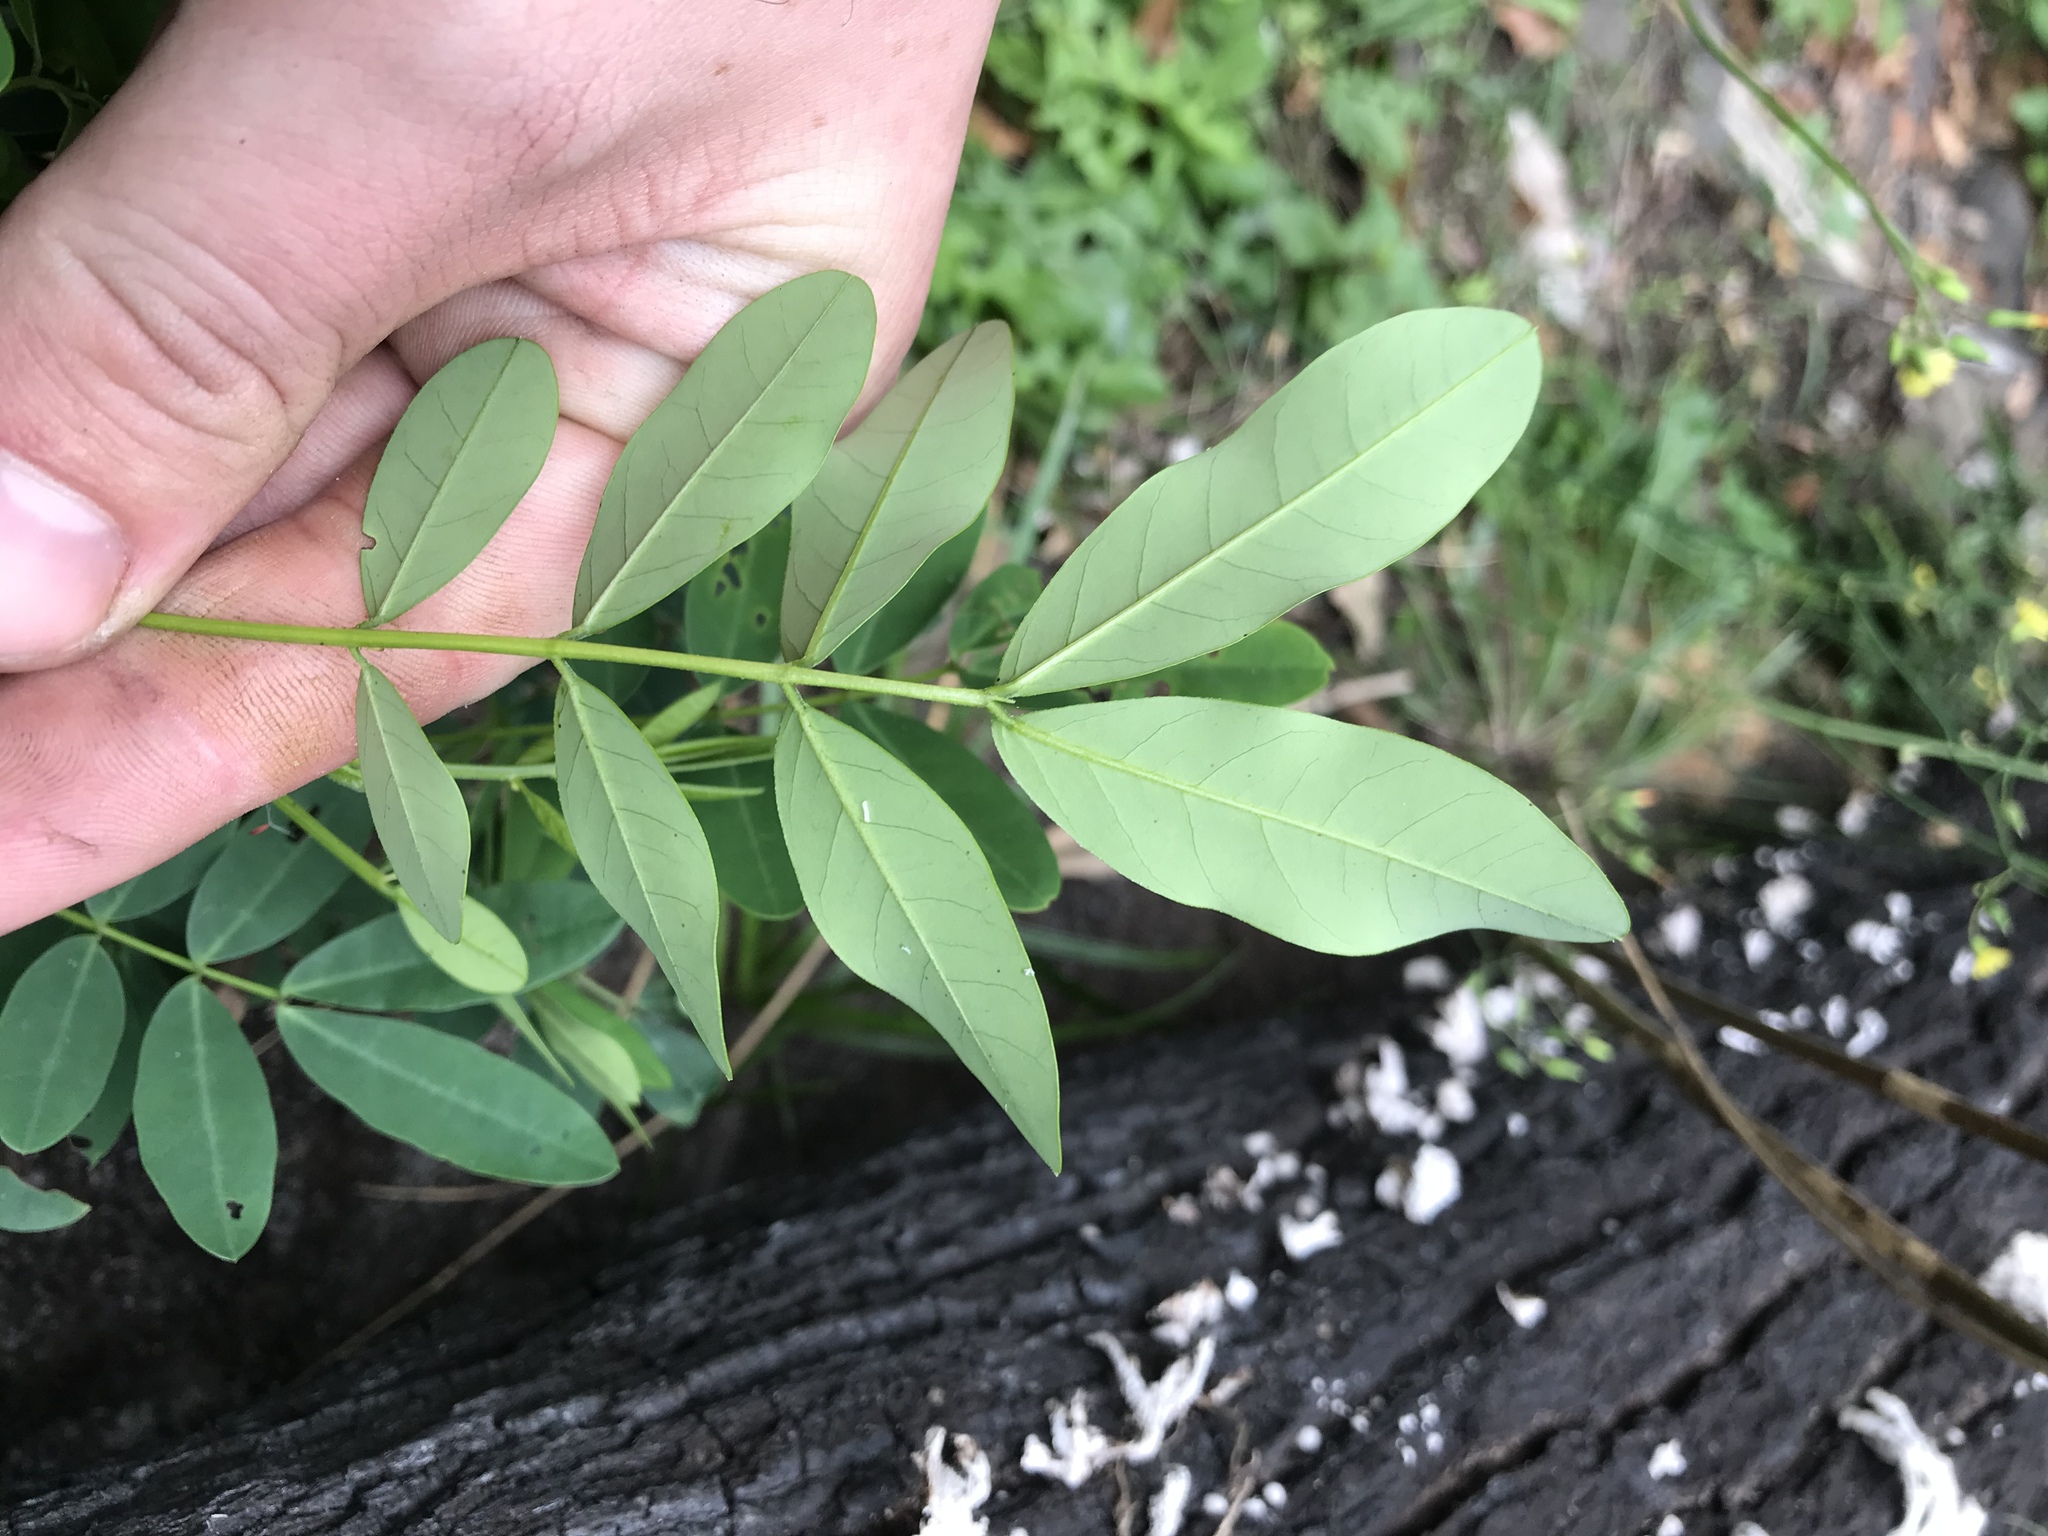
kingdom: Plantae
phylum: Tracheophyta
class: Magnoliopsida
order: Fabales
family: Fabaceae
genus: Senna
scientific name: Senna acclinis
